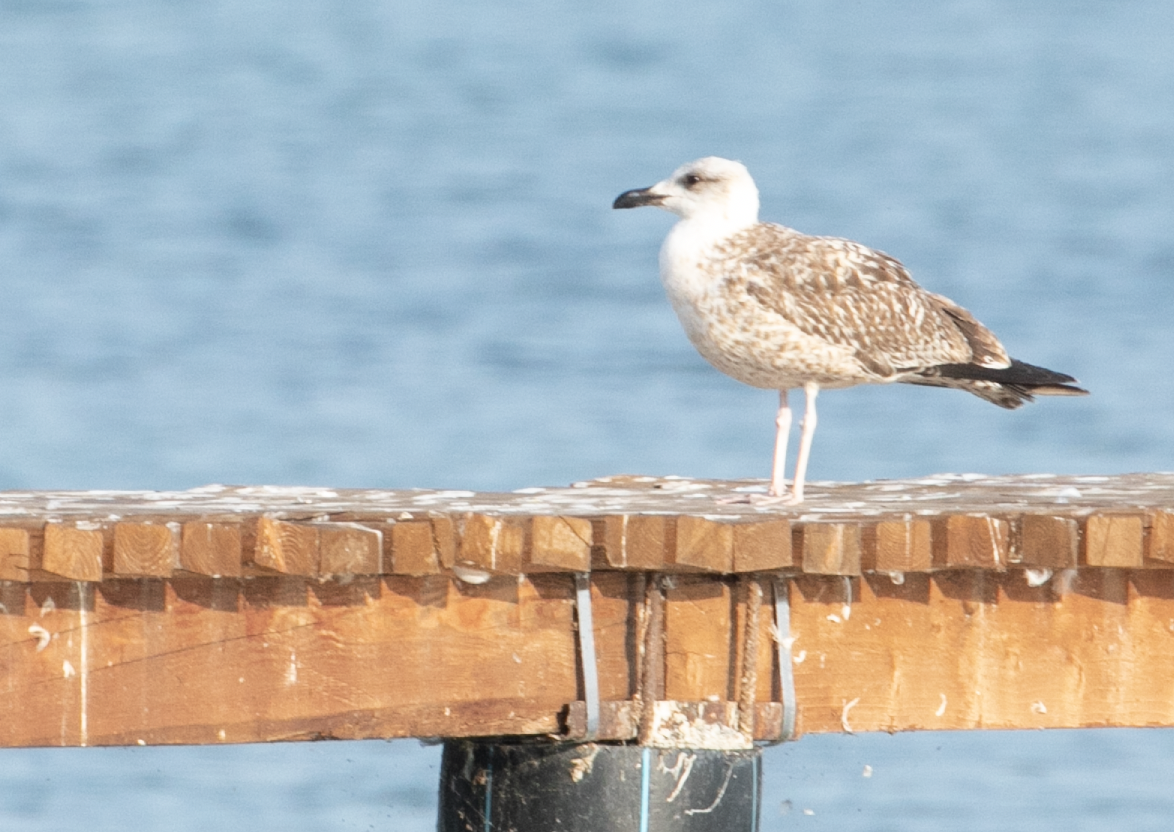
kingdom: Animalia
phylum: Chordata
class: Aves
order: Charadriiformes
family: Laridae
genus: Larus
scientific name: Larus michahellis
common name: Yellow-legged gull
